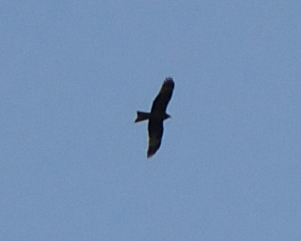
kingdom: Animalia
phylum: Chordata
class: Aves
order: Accipitriformes
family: Accipitridae
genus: Milvus
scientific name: Milvus migrans
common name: Black kite
